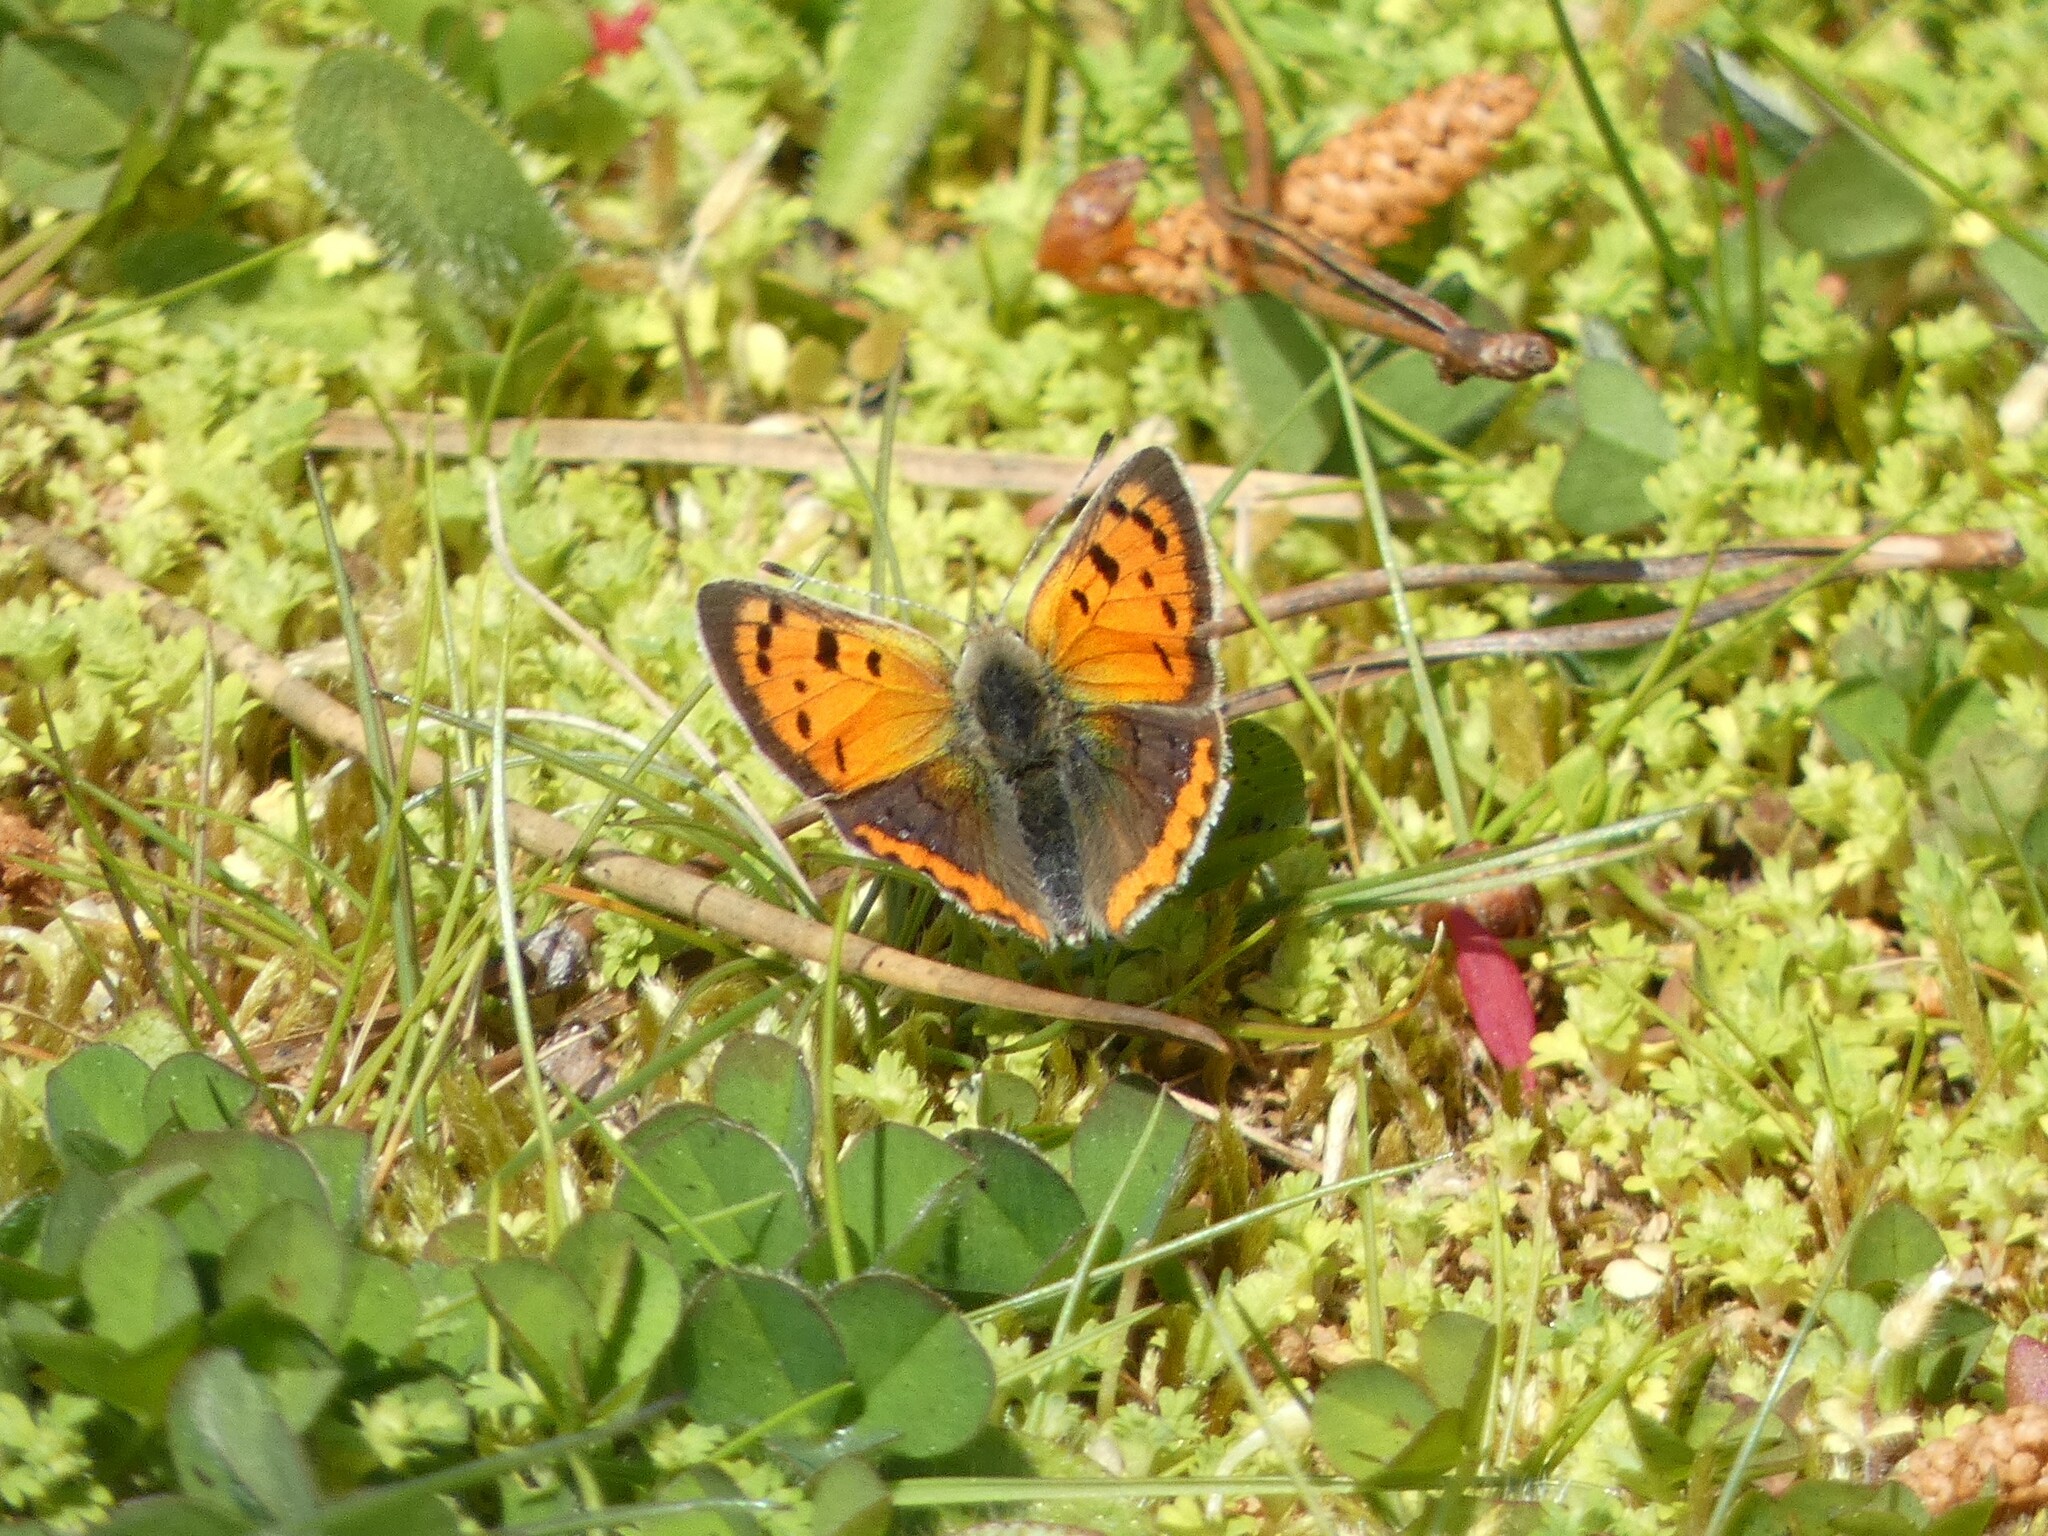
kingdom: Animalia
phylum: Arthropoda
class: Insecta
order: Lepidoptera
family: Lycaenidae
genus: Lycaena
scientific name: Lycaena phlaeas
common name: Small copper
